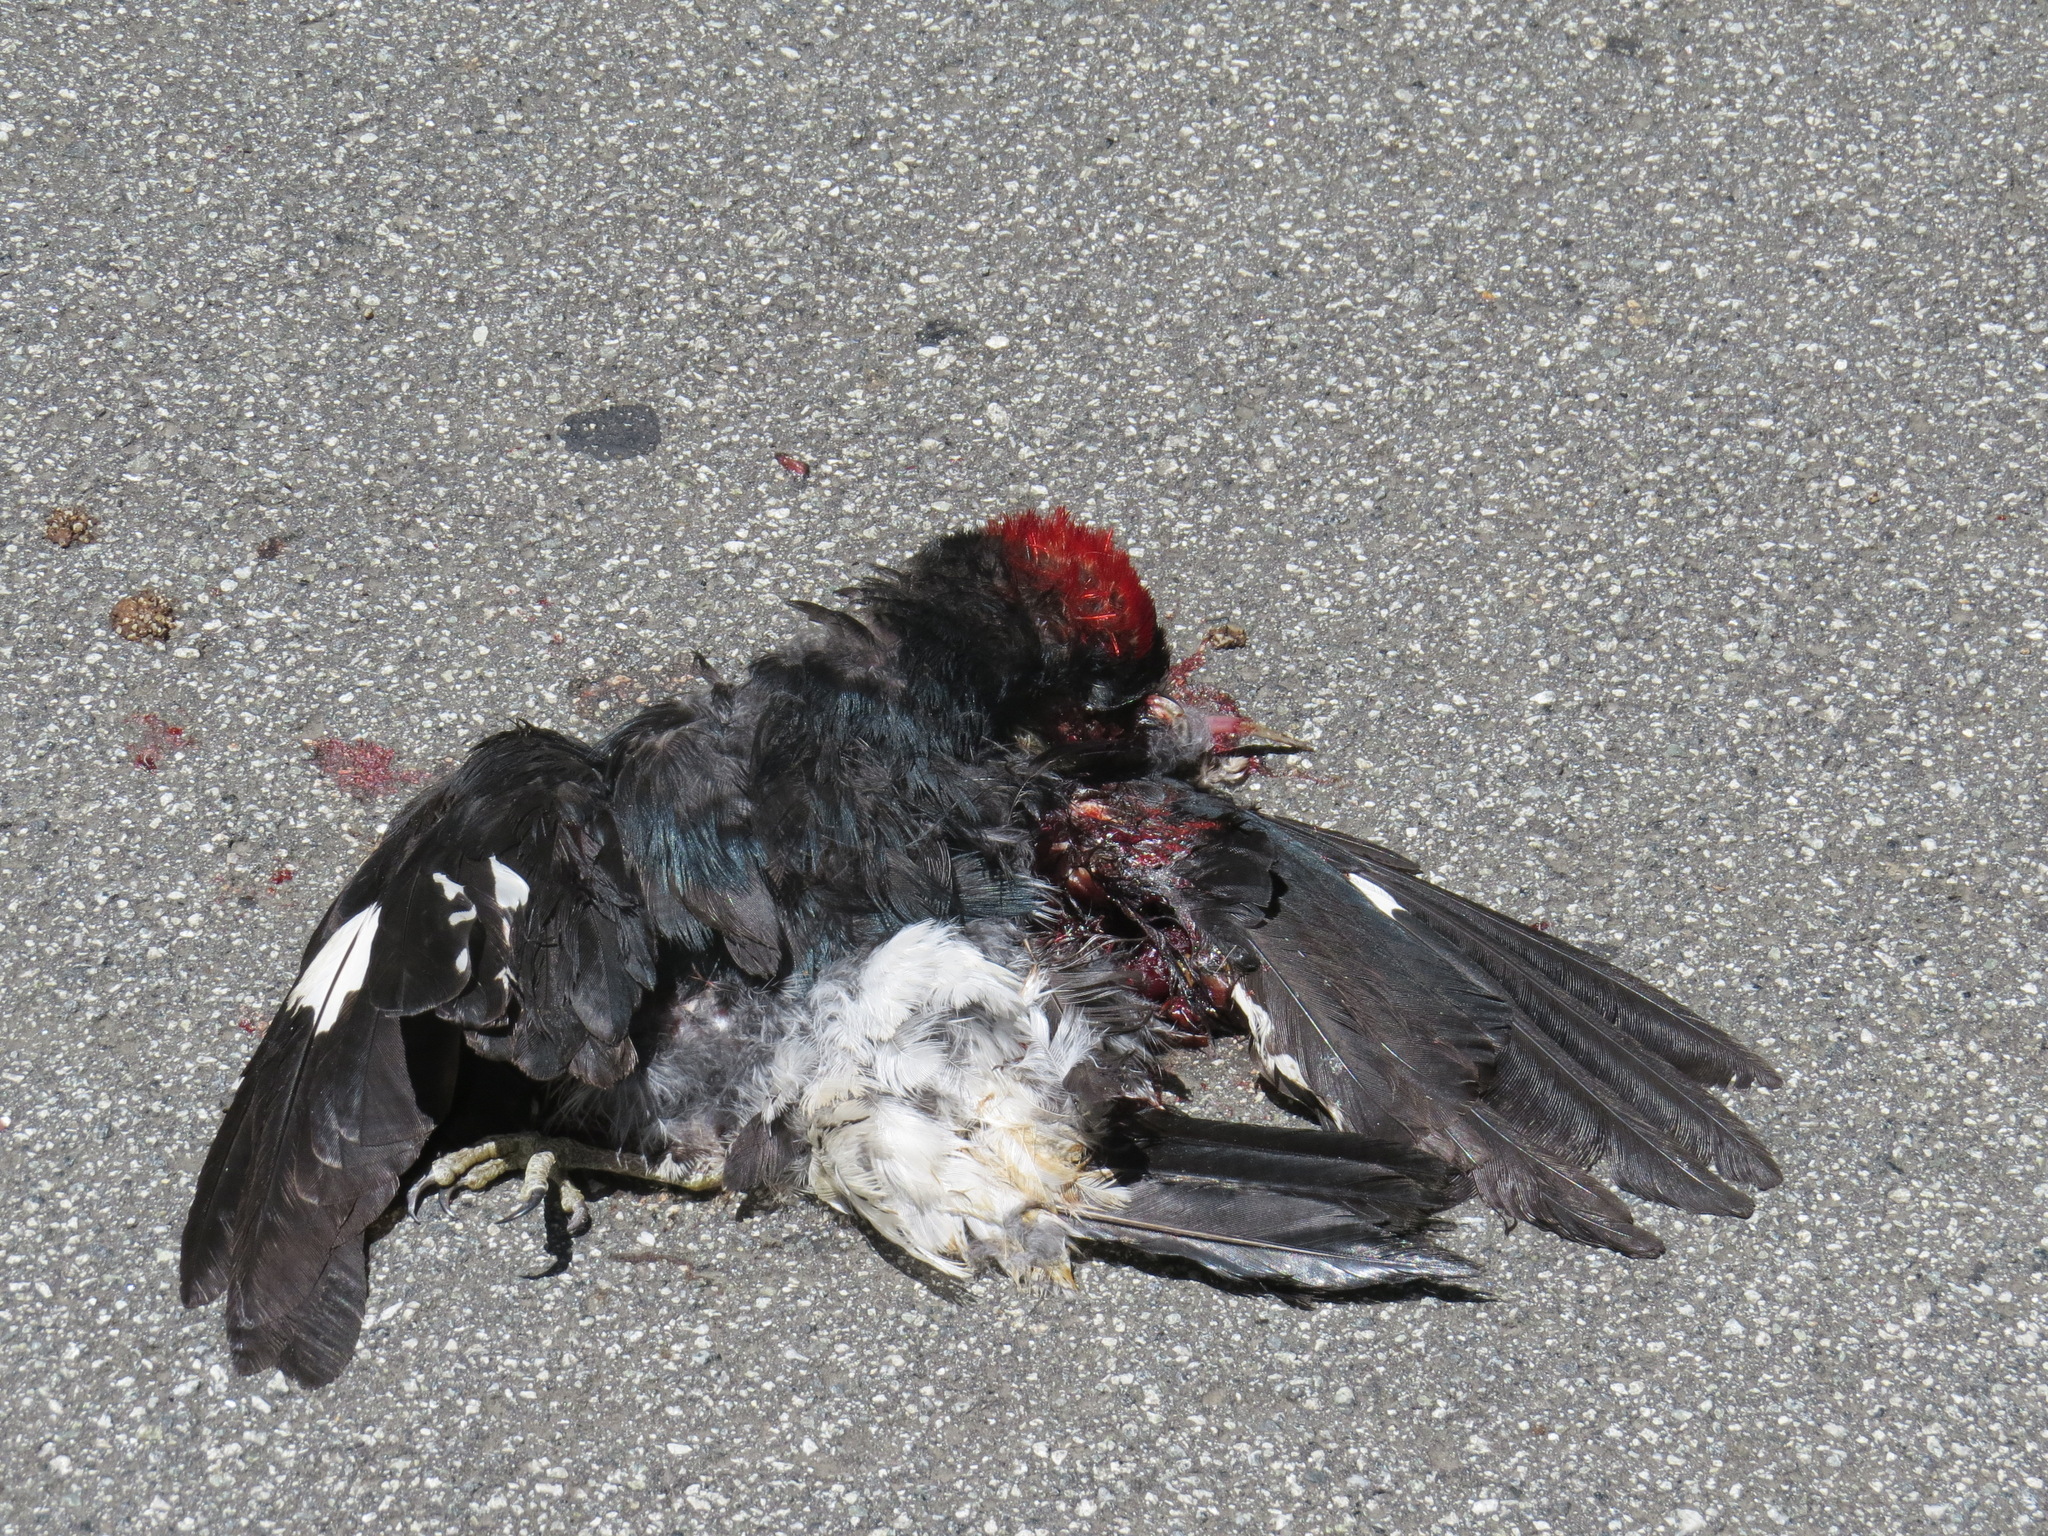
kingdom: Animalia
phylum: Chordata
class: Aves
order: Piciformes
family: Picidae
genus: Melanerpes
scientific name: Melanerpes formicivorus
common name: Acorn woodpecker
